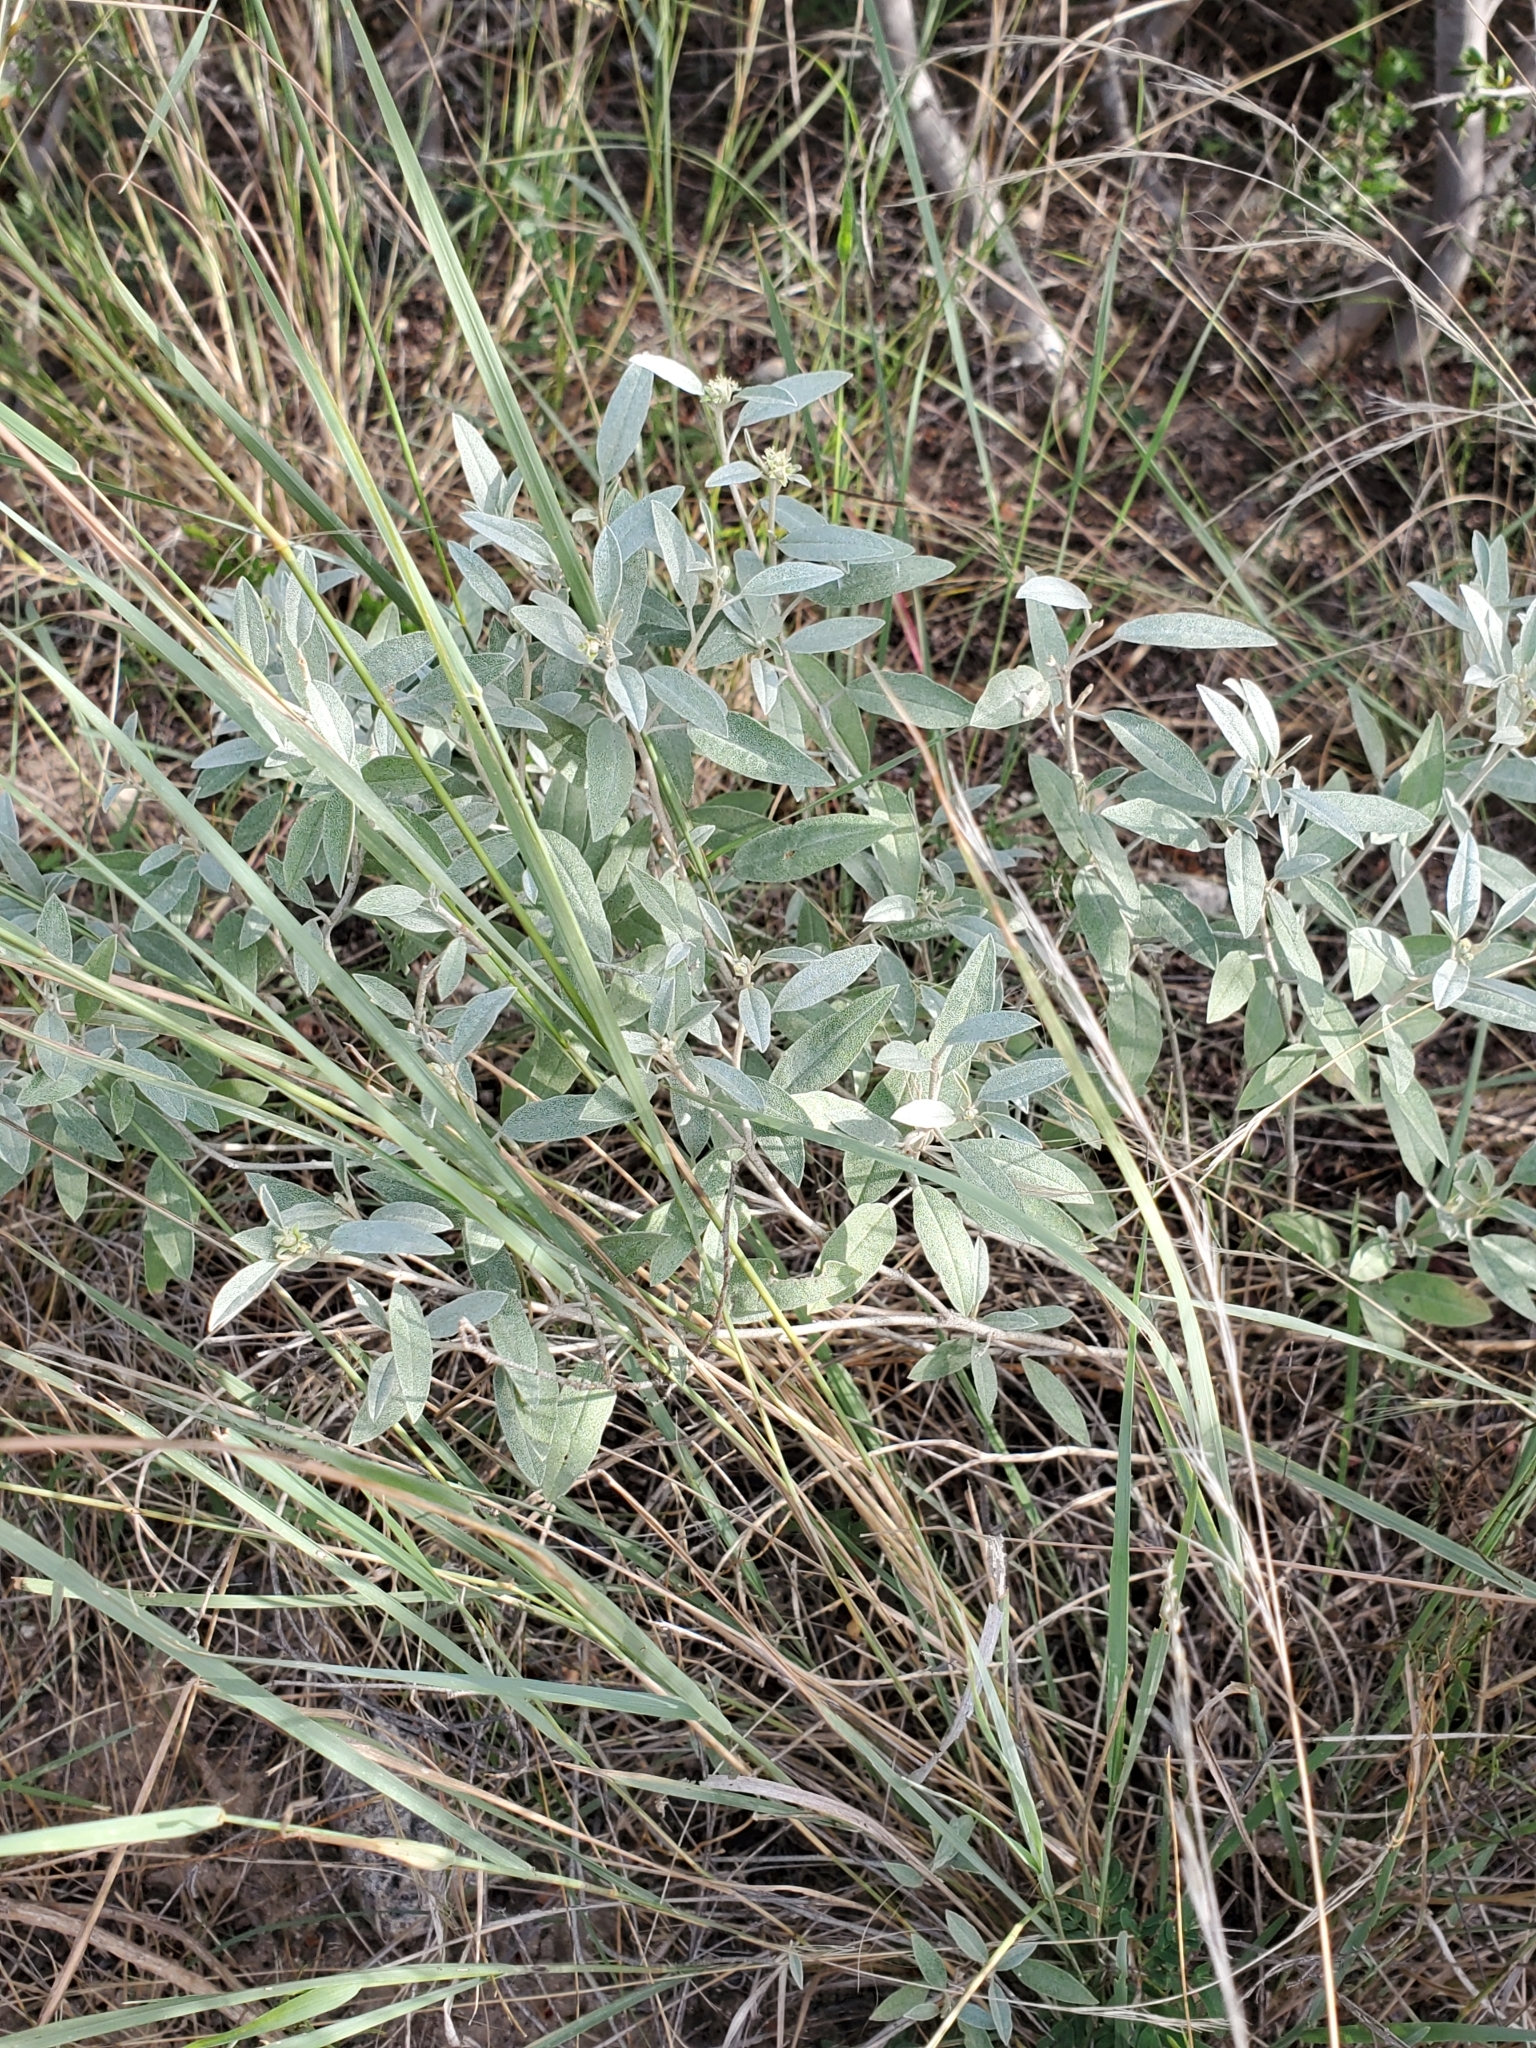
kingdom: Plantae
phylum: Tracheophyta
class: Magnoliopsida
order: Malpighiales
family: Euphorbiaceae
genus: Croton
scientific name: Croton dioicus
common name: Grassland croton
